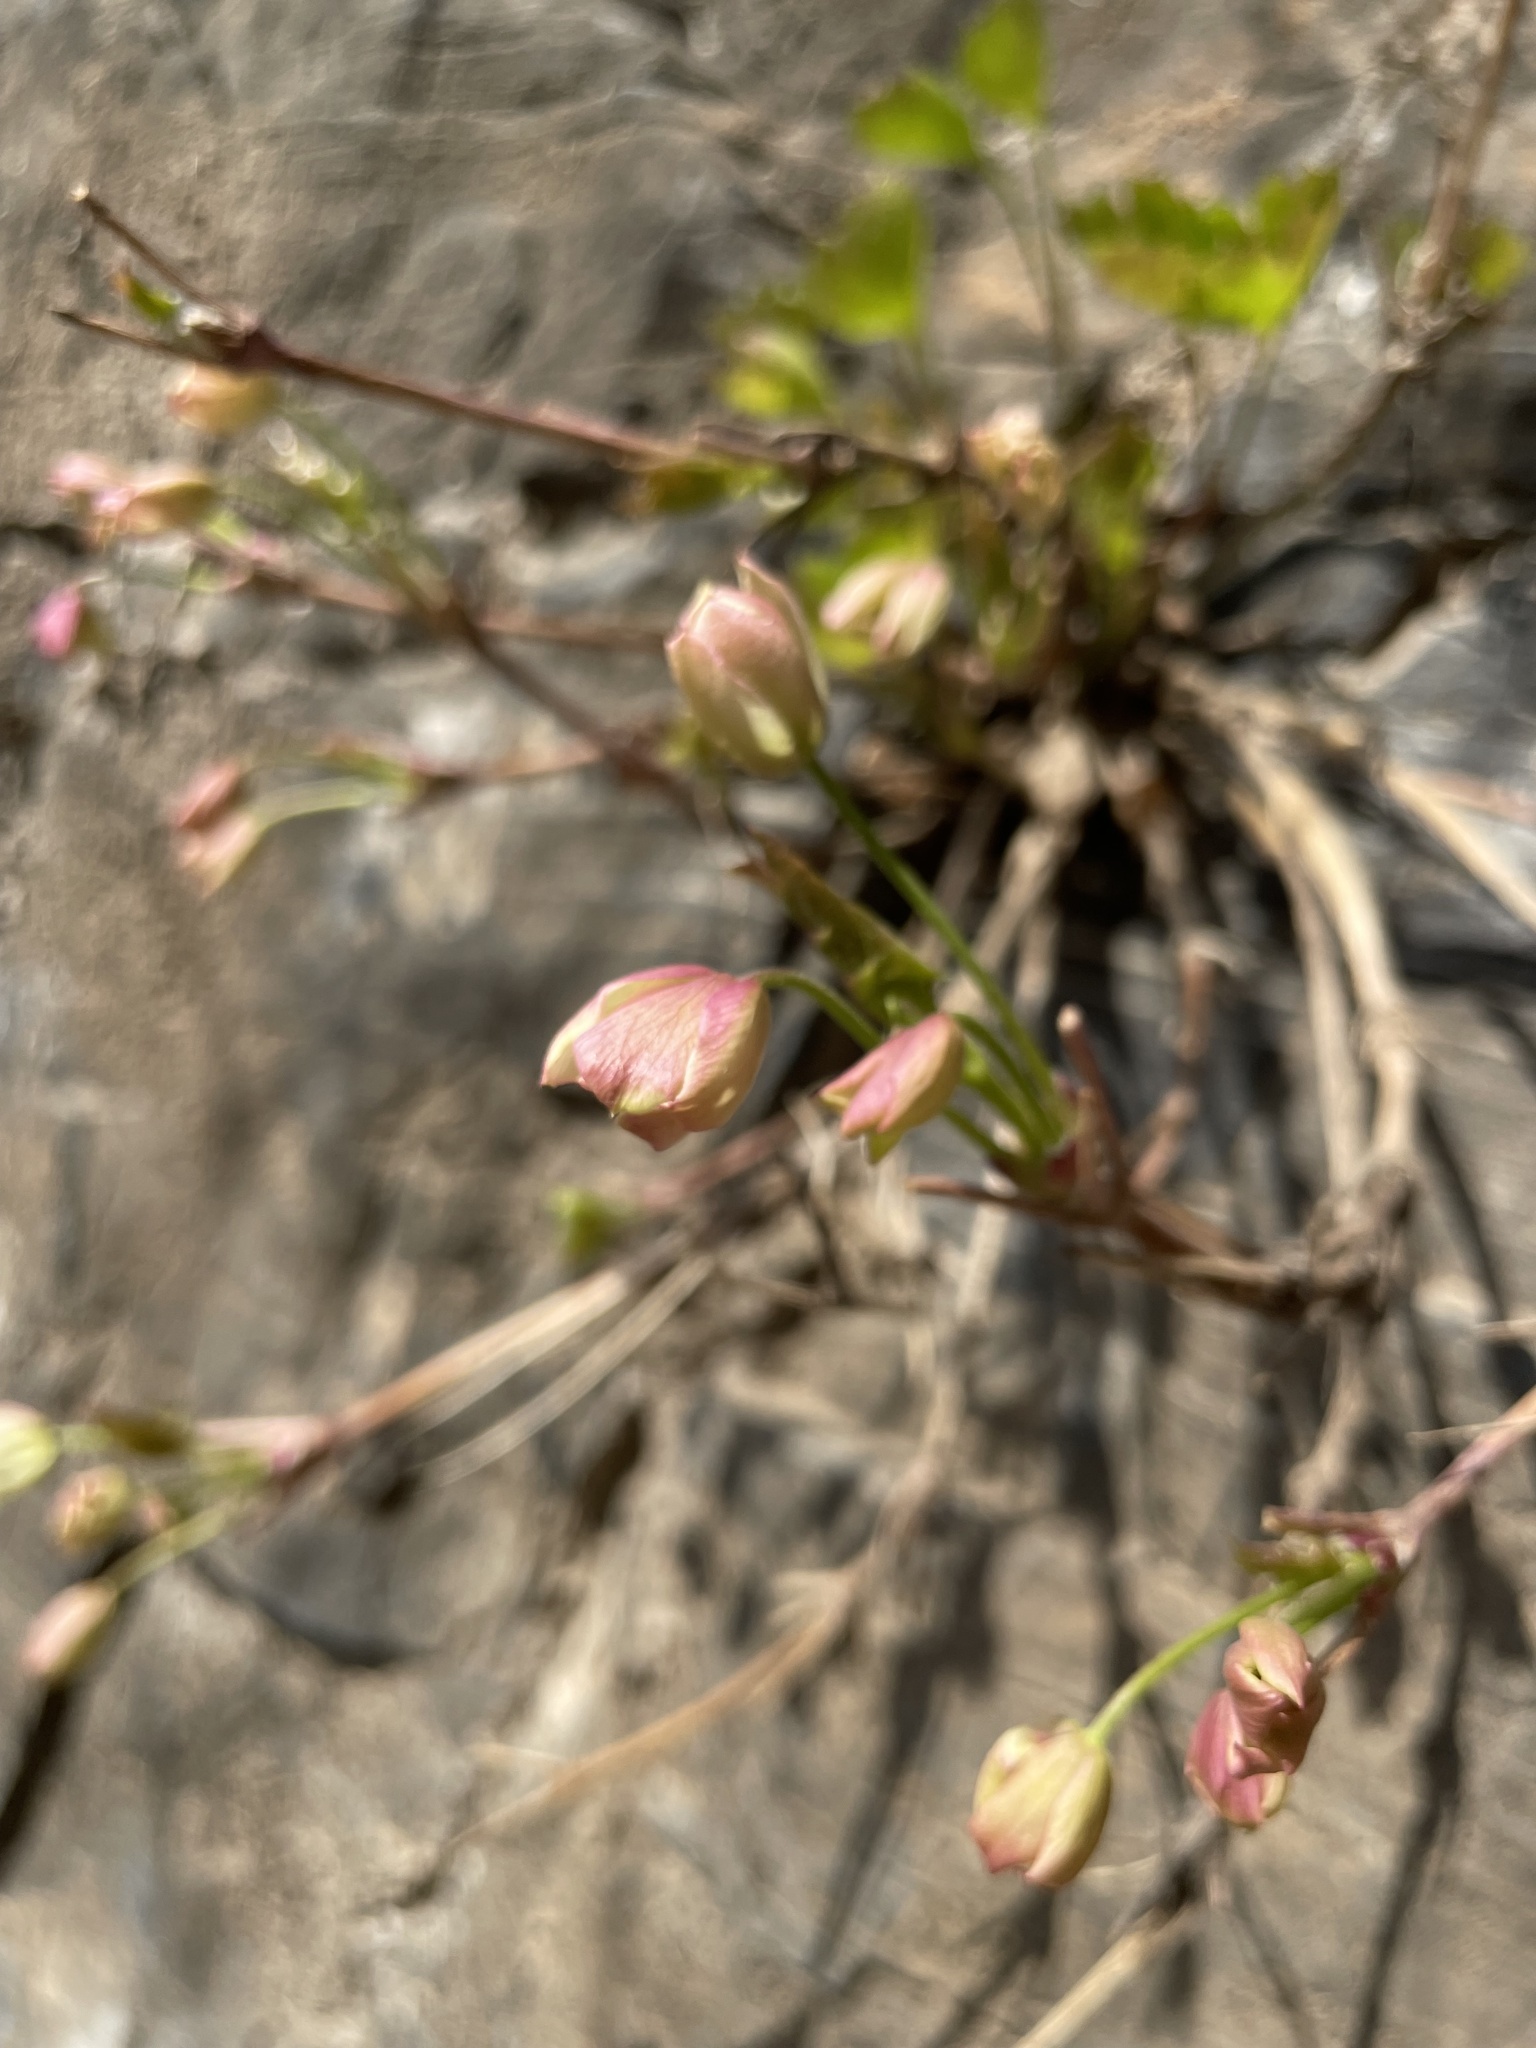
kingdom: Plantae
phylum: Tracheophyta
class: Magnoliopsida
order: Ranunculales
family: Ranunculaceae
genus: Clematis
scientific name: Clematis acerifolia
